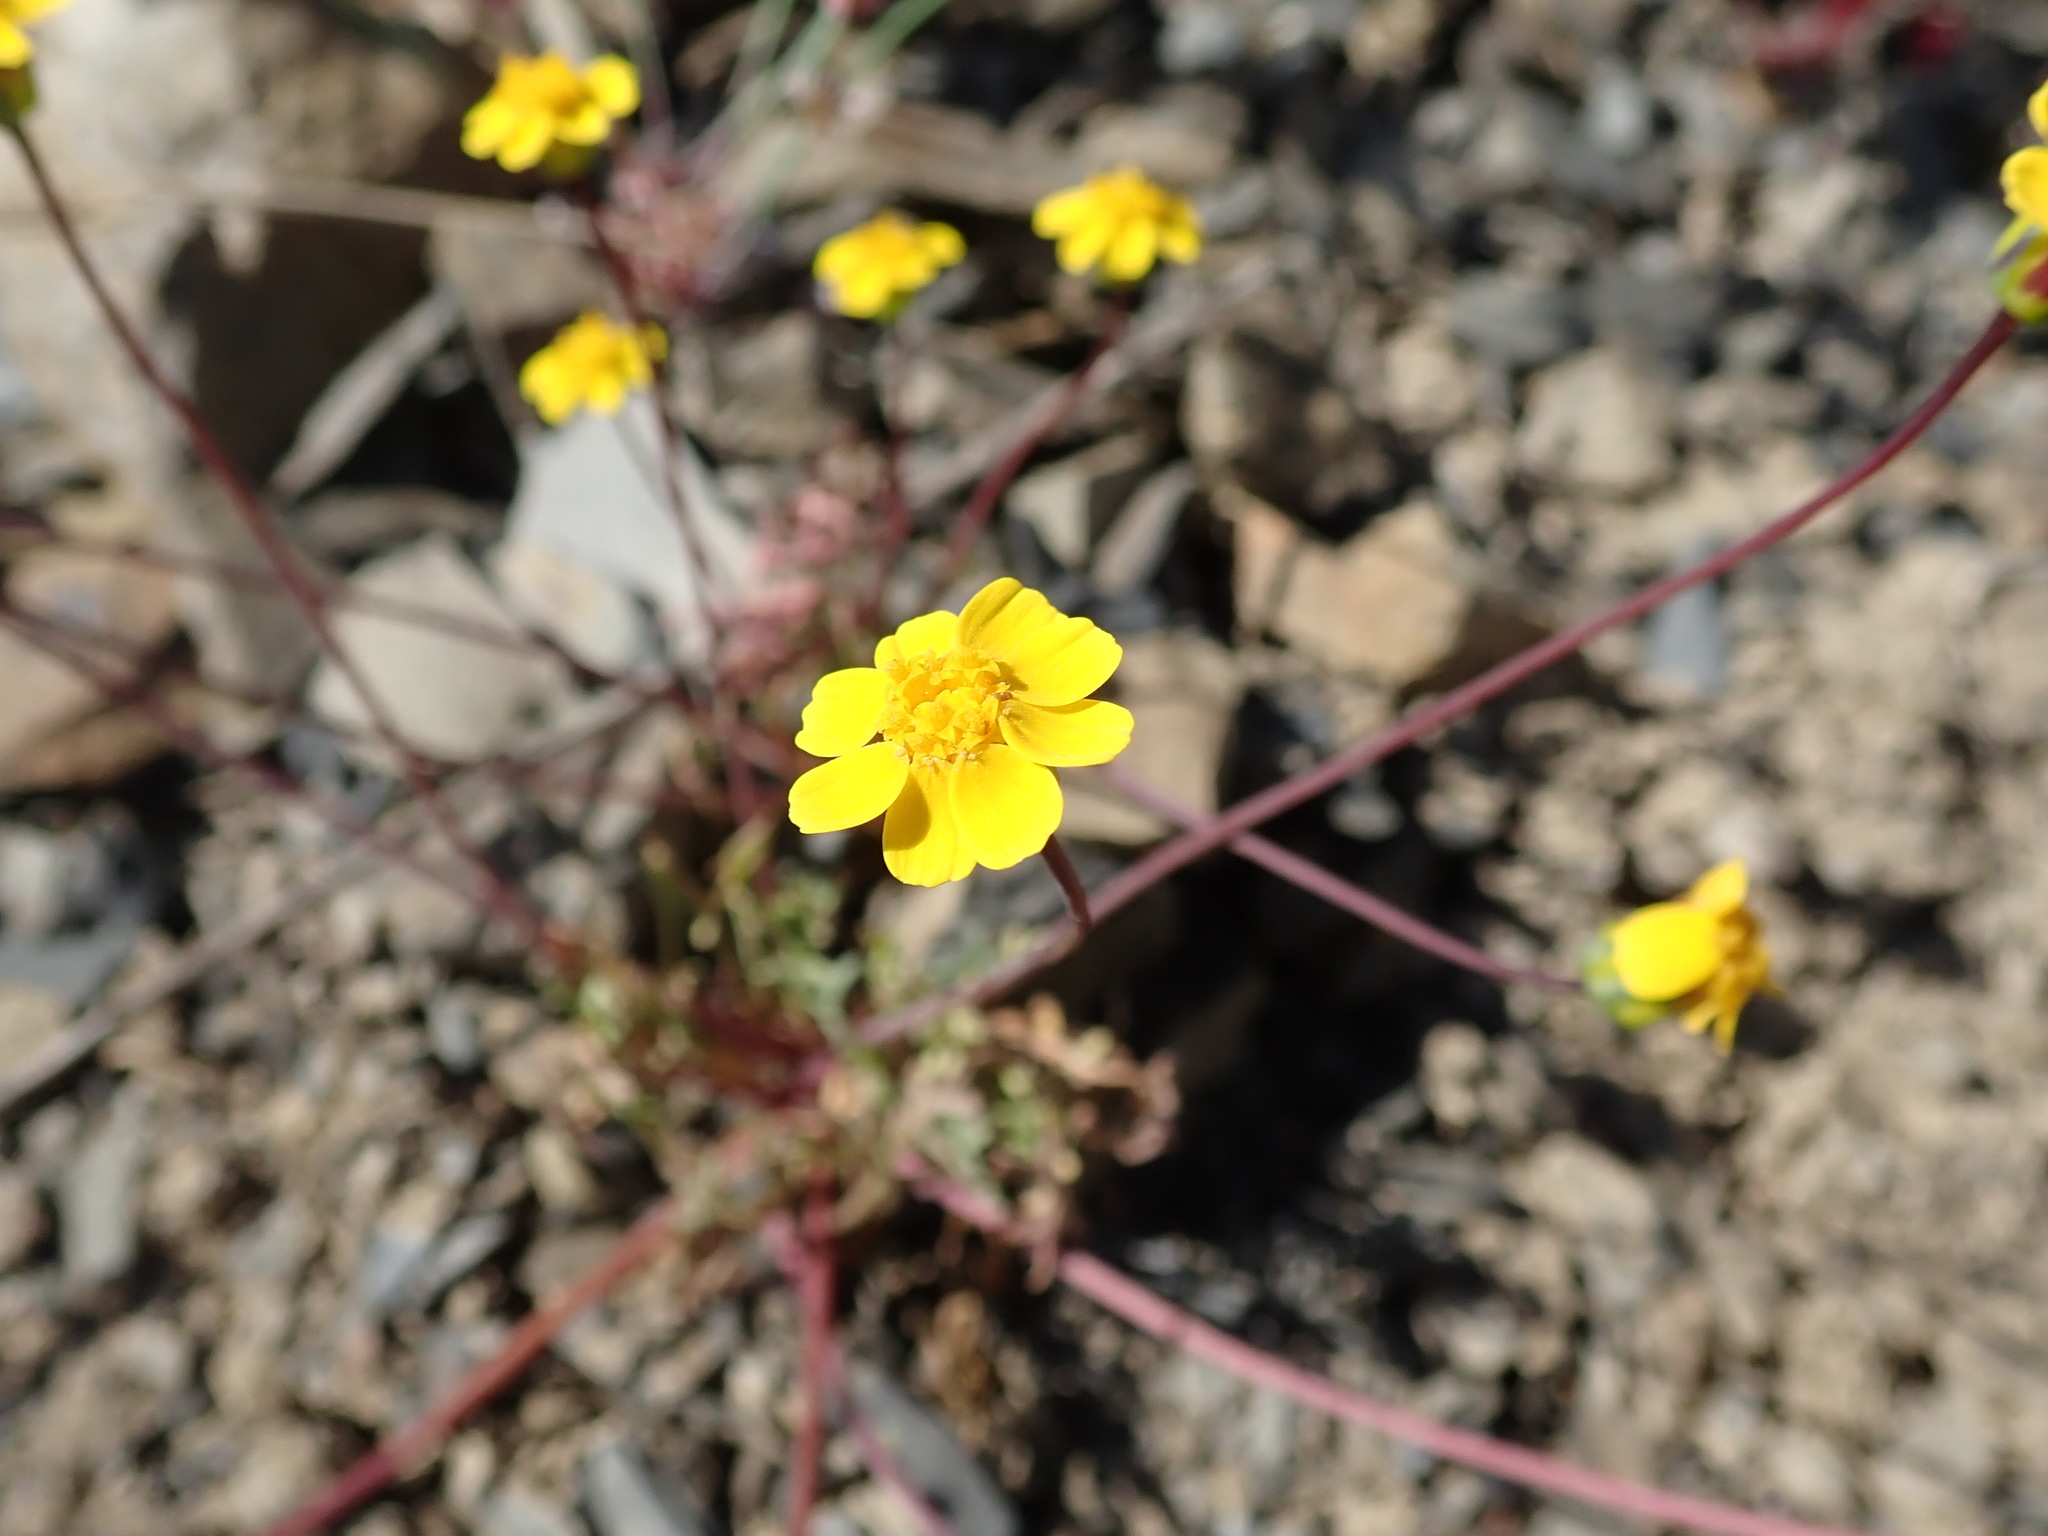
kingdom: Plantae
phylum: Tracheophyta
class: Magnoliopsida
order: Asterales
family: Asteraceae
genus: Coreopsis
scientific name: Coreopsis hamiltonii
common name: Mount hamilton coreopsis
